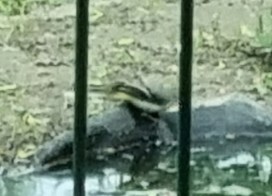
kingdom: Animalia
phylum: Chordata
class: Aves
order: Passeriformes
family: Motacillidae
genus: Motacilla
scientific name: Motacilla cinerea
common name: Grey wagtail
